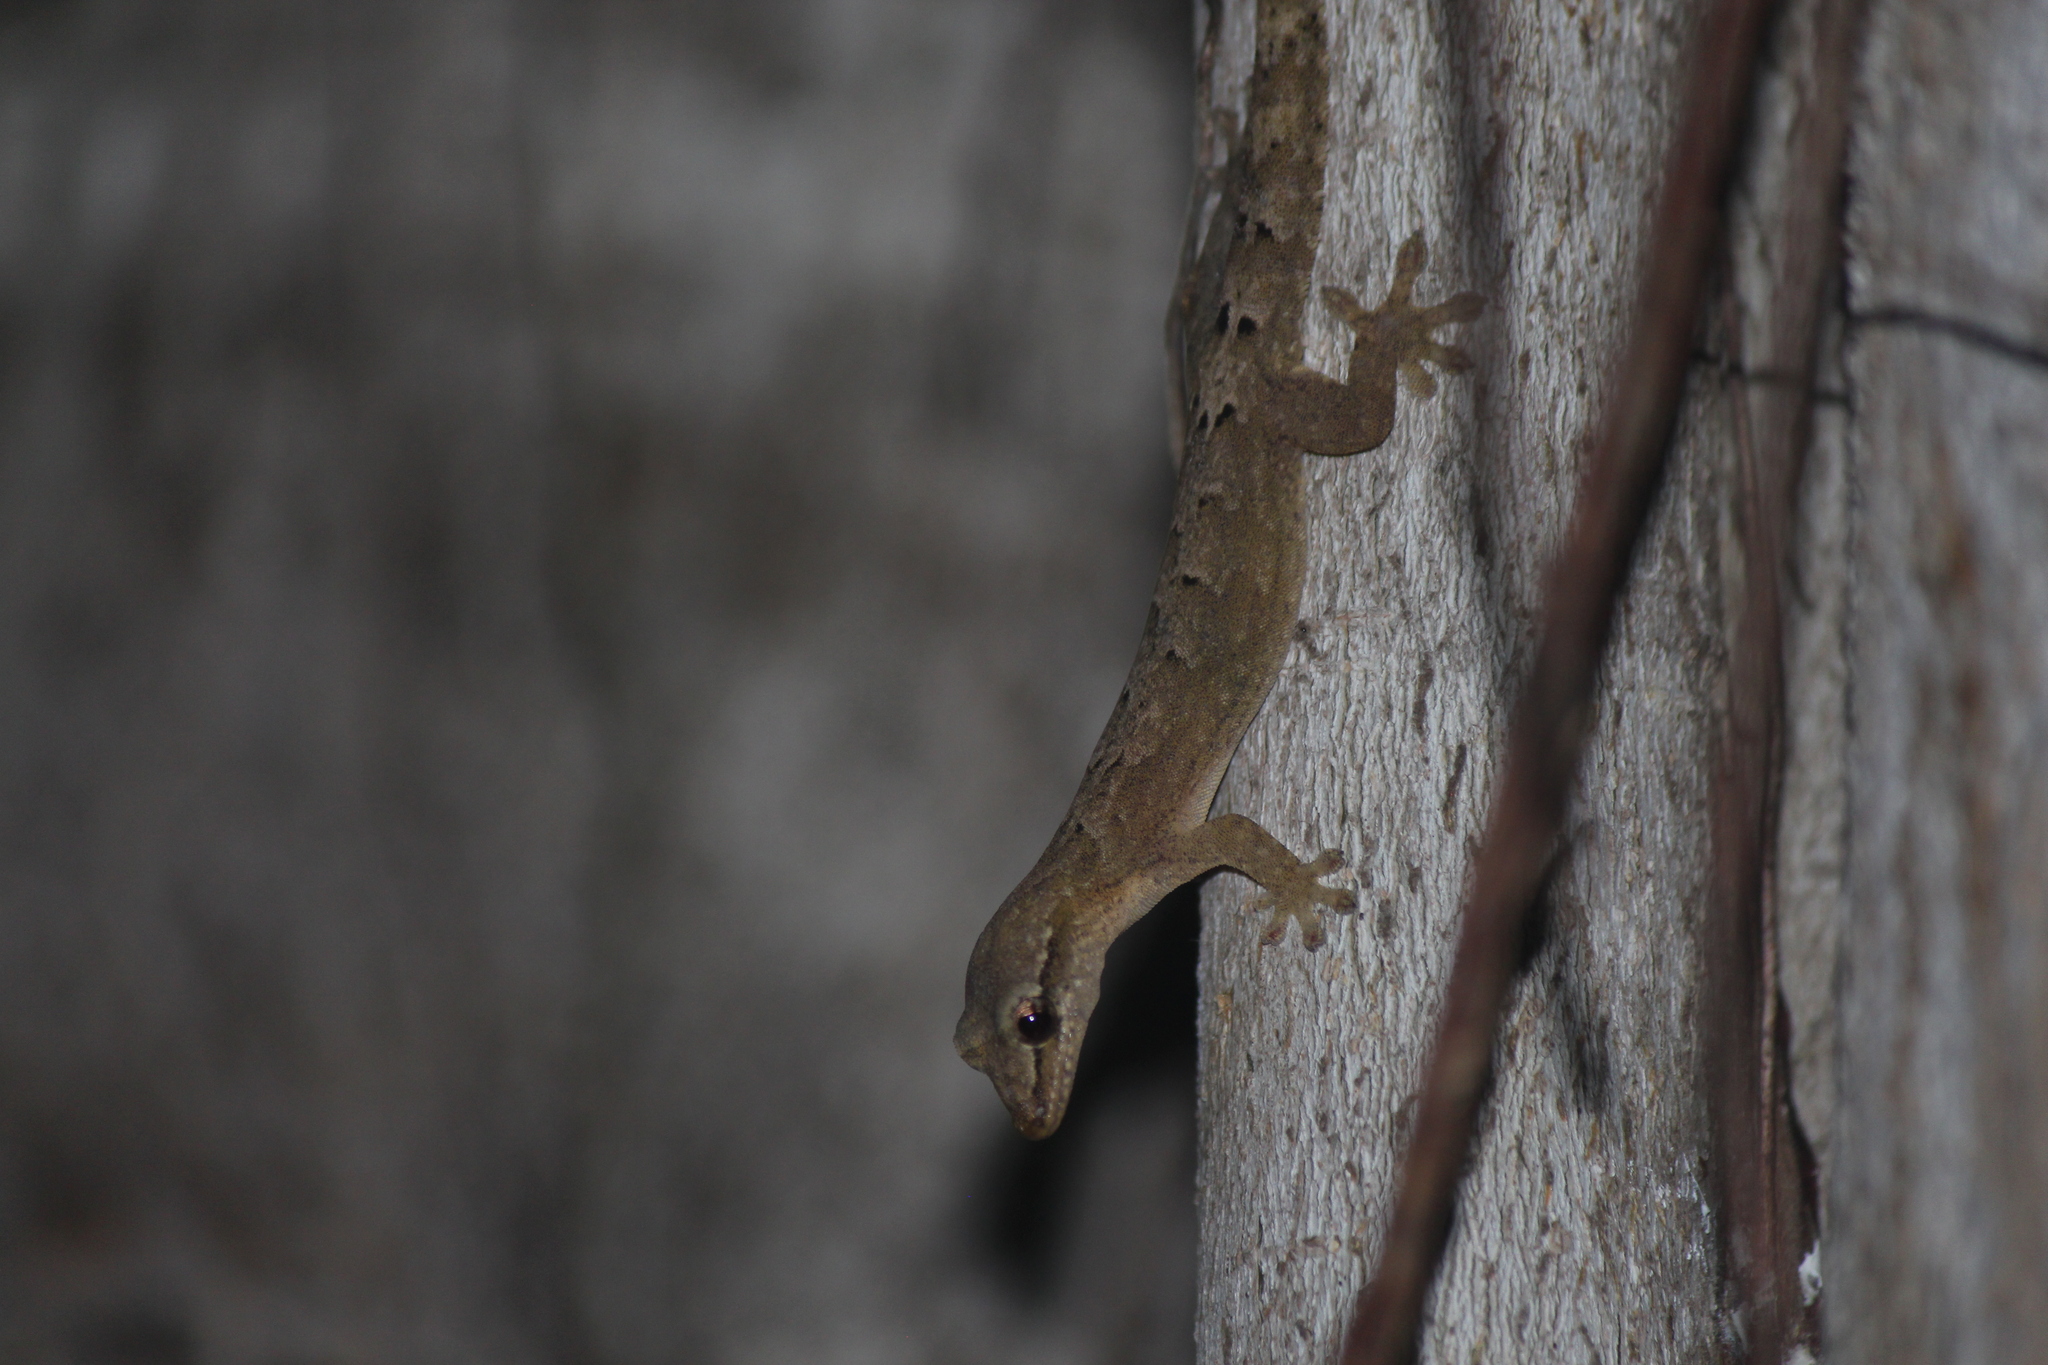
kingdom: Animalia
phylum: Chordata
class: Squamata
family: Gekkonidae
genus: Lepidodactylus
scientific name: Lepidodactylus lugubris
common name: Mourning gecko
